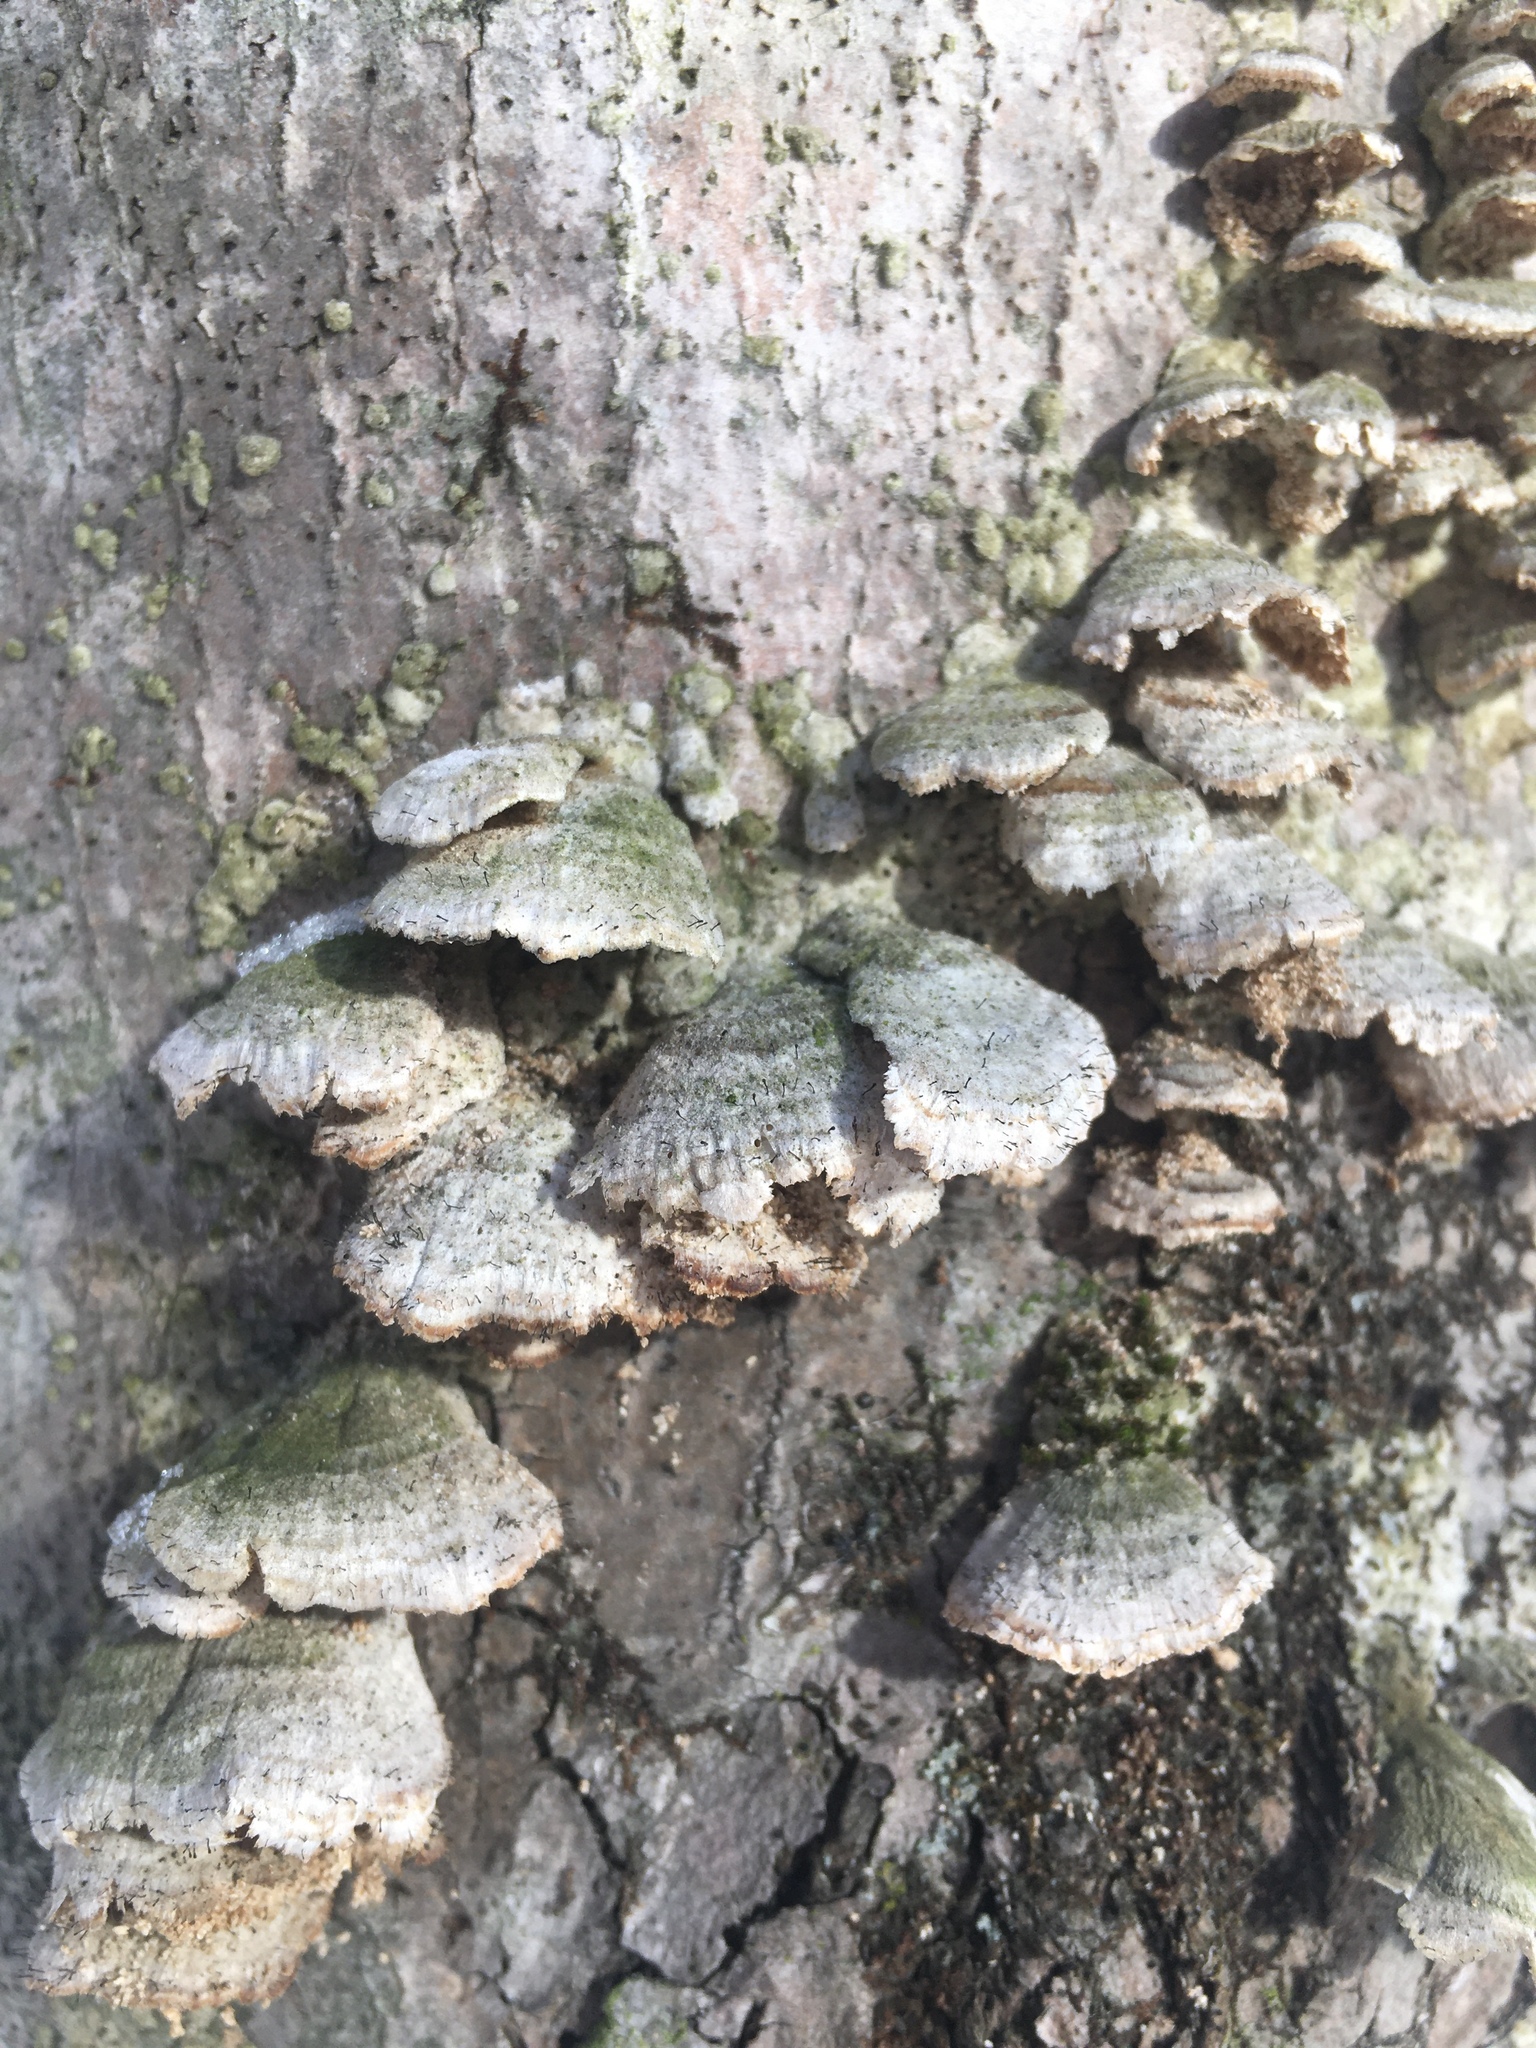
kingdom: Fungi
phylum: Ascomycota
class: Eurotiomycetes
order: Mycocaliciales
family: Mycocaliciaceae
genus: Phaeocalicium
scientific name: Phaeocalicium polyporaeum
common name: Fairy pins
